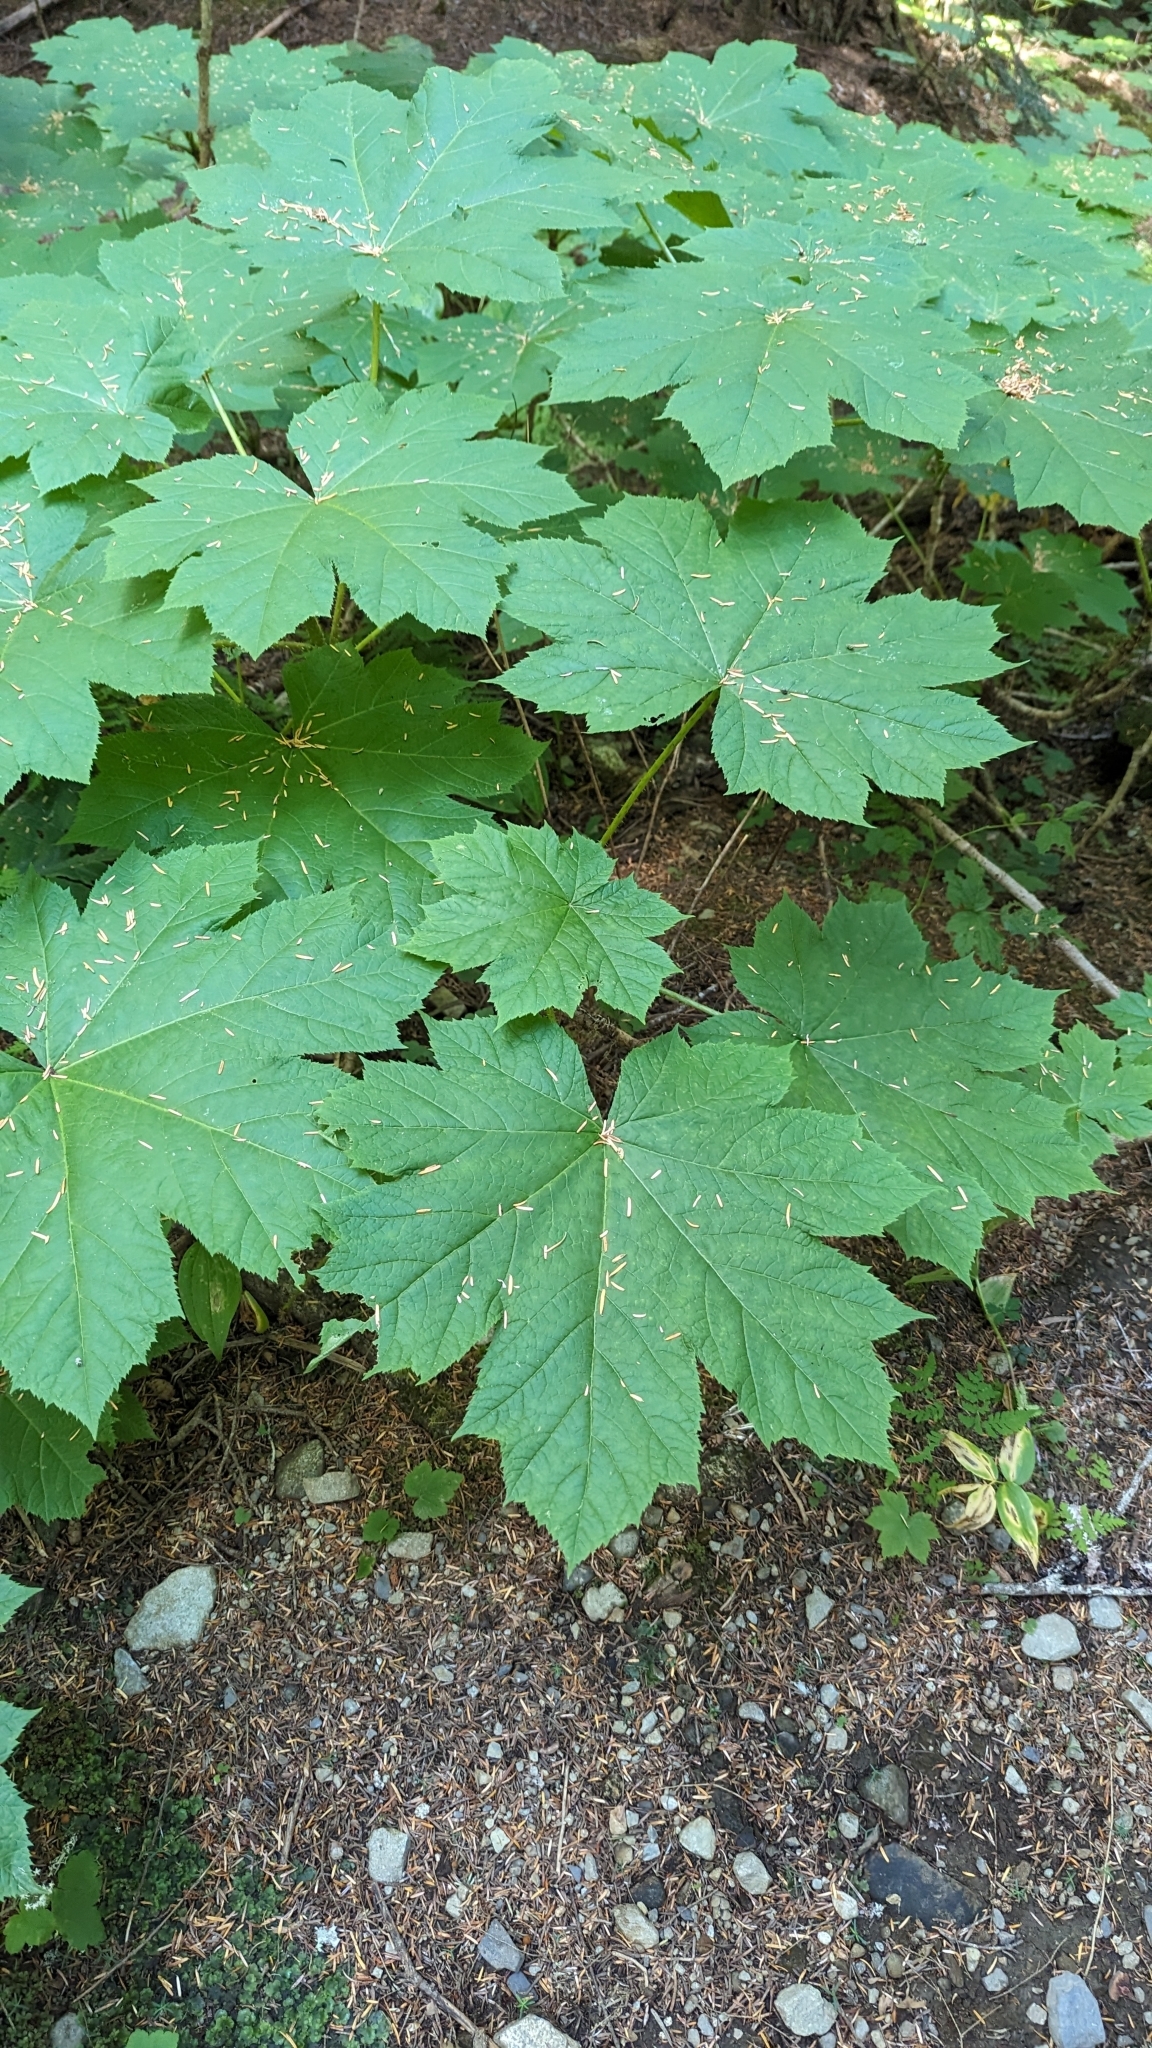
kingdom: Plantae
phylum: Tracheophyta
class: Magnoliopsida
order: Apiales
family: Araliaceae
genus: Oplopanax
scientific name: Oplopanax horridus
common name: Devil's walking-stick
